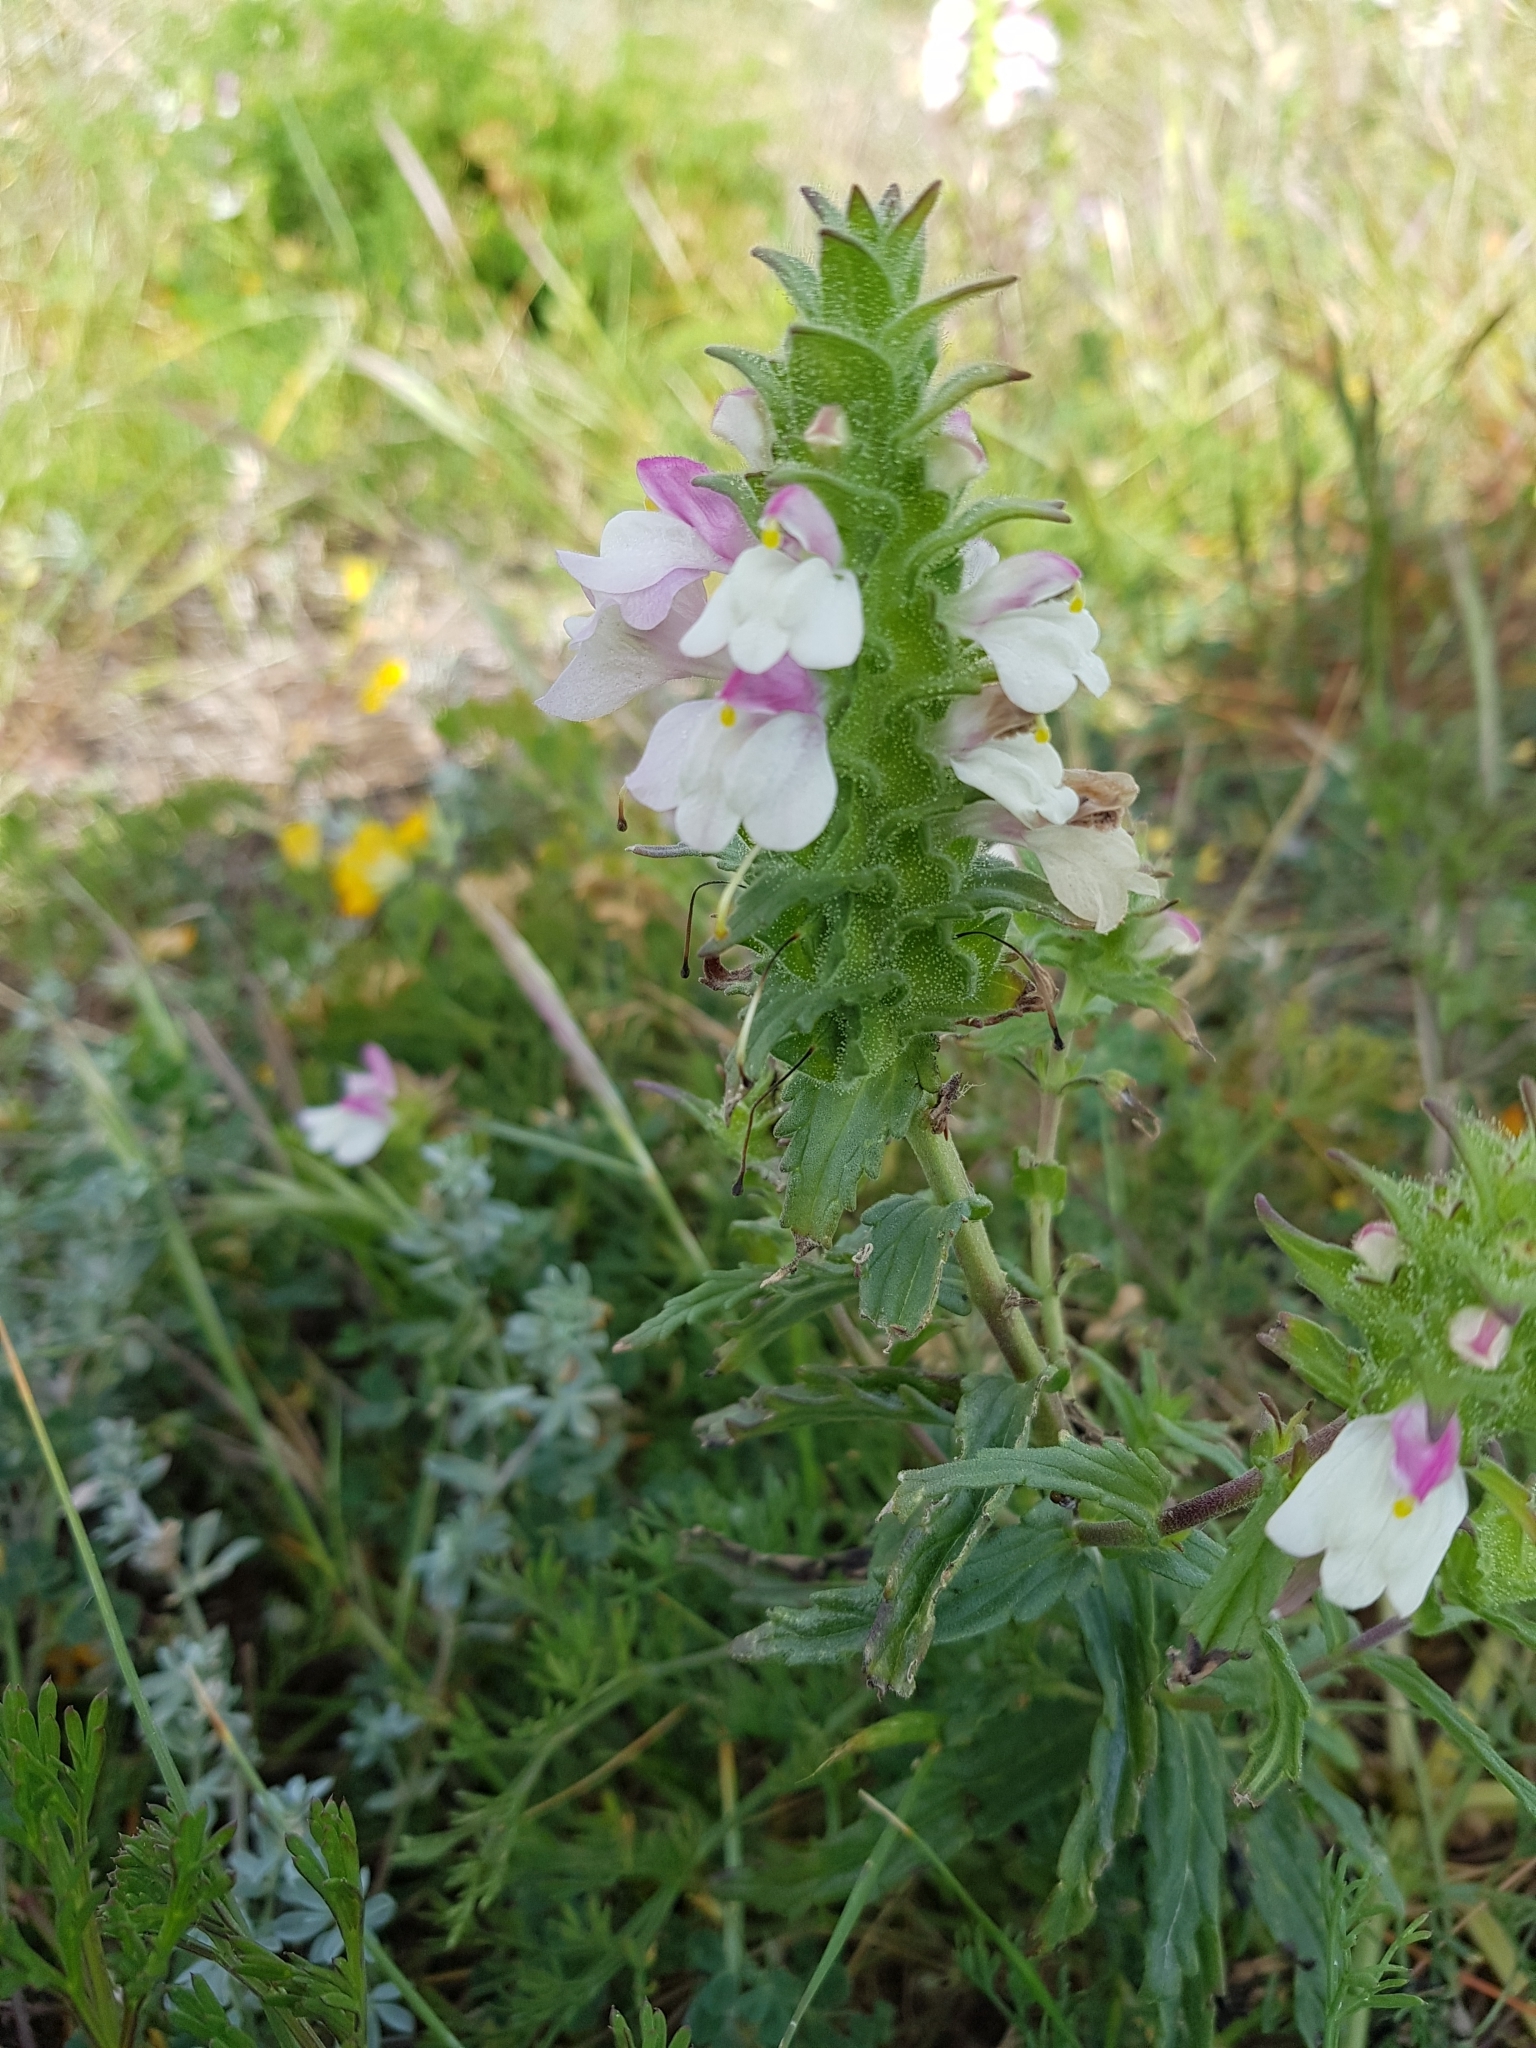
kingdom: Plantae
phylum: Tracheophyta
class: Magnoliopsida
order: Lamiales
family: Orobanchaceae
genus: Bellardia
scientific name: Bellardia trixago
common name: Mediterranean lineseed
